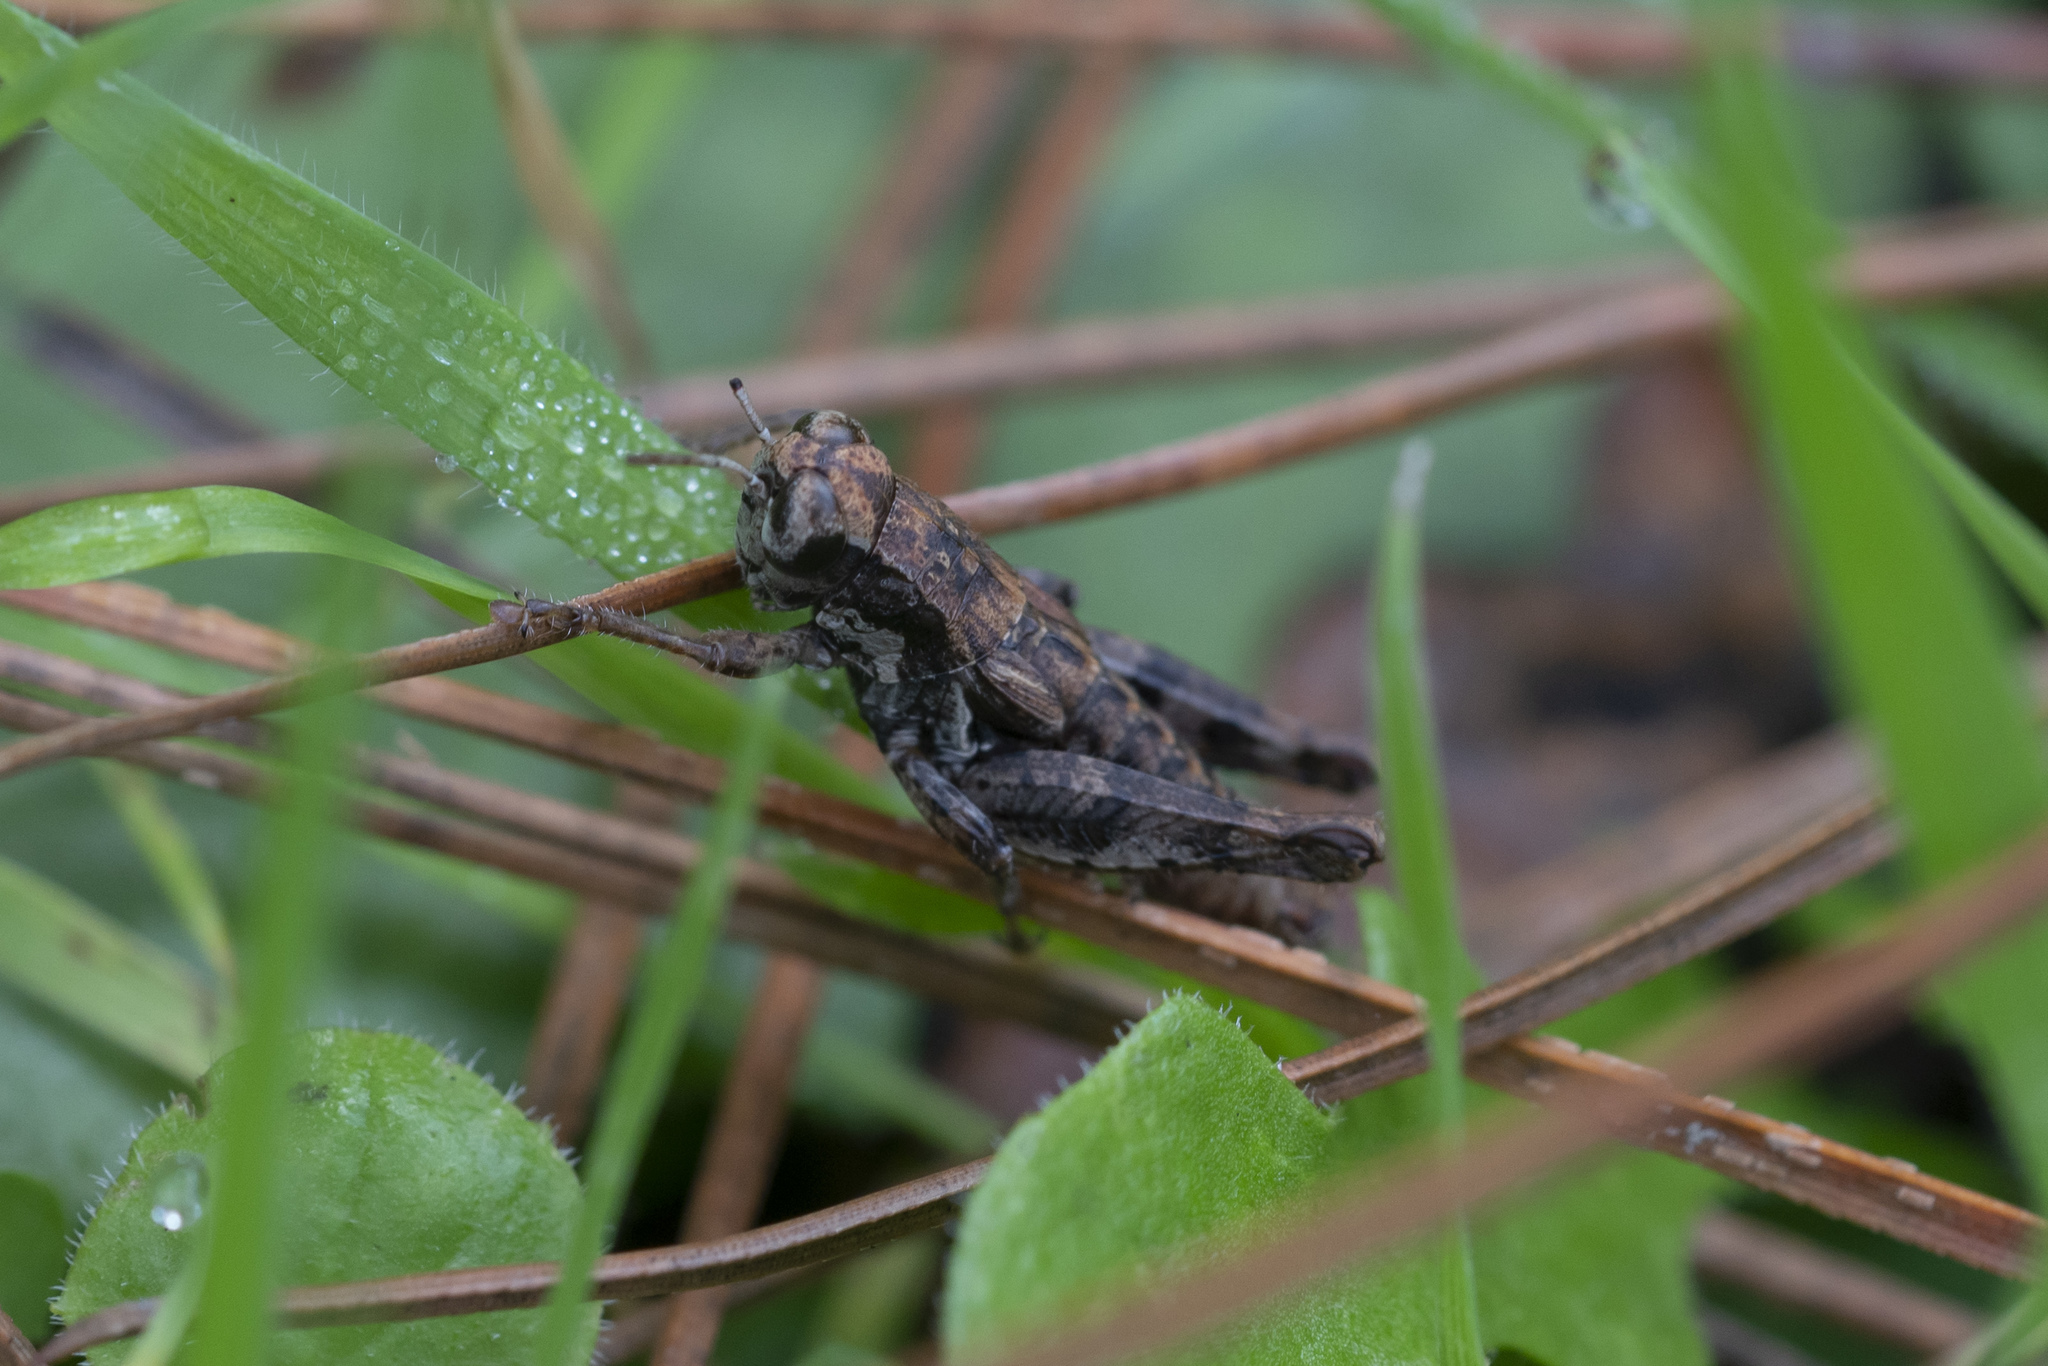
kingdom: Animalia
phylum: Arthropoda
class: Insecta
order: Orthoptera
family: Acrididae
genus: Pezotettix
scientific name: Pezotettix lagoi
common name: Rhodes maquis grasshopper
